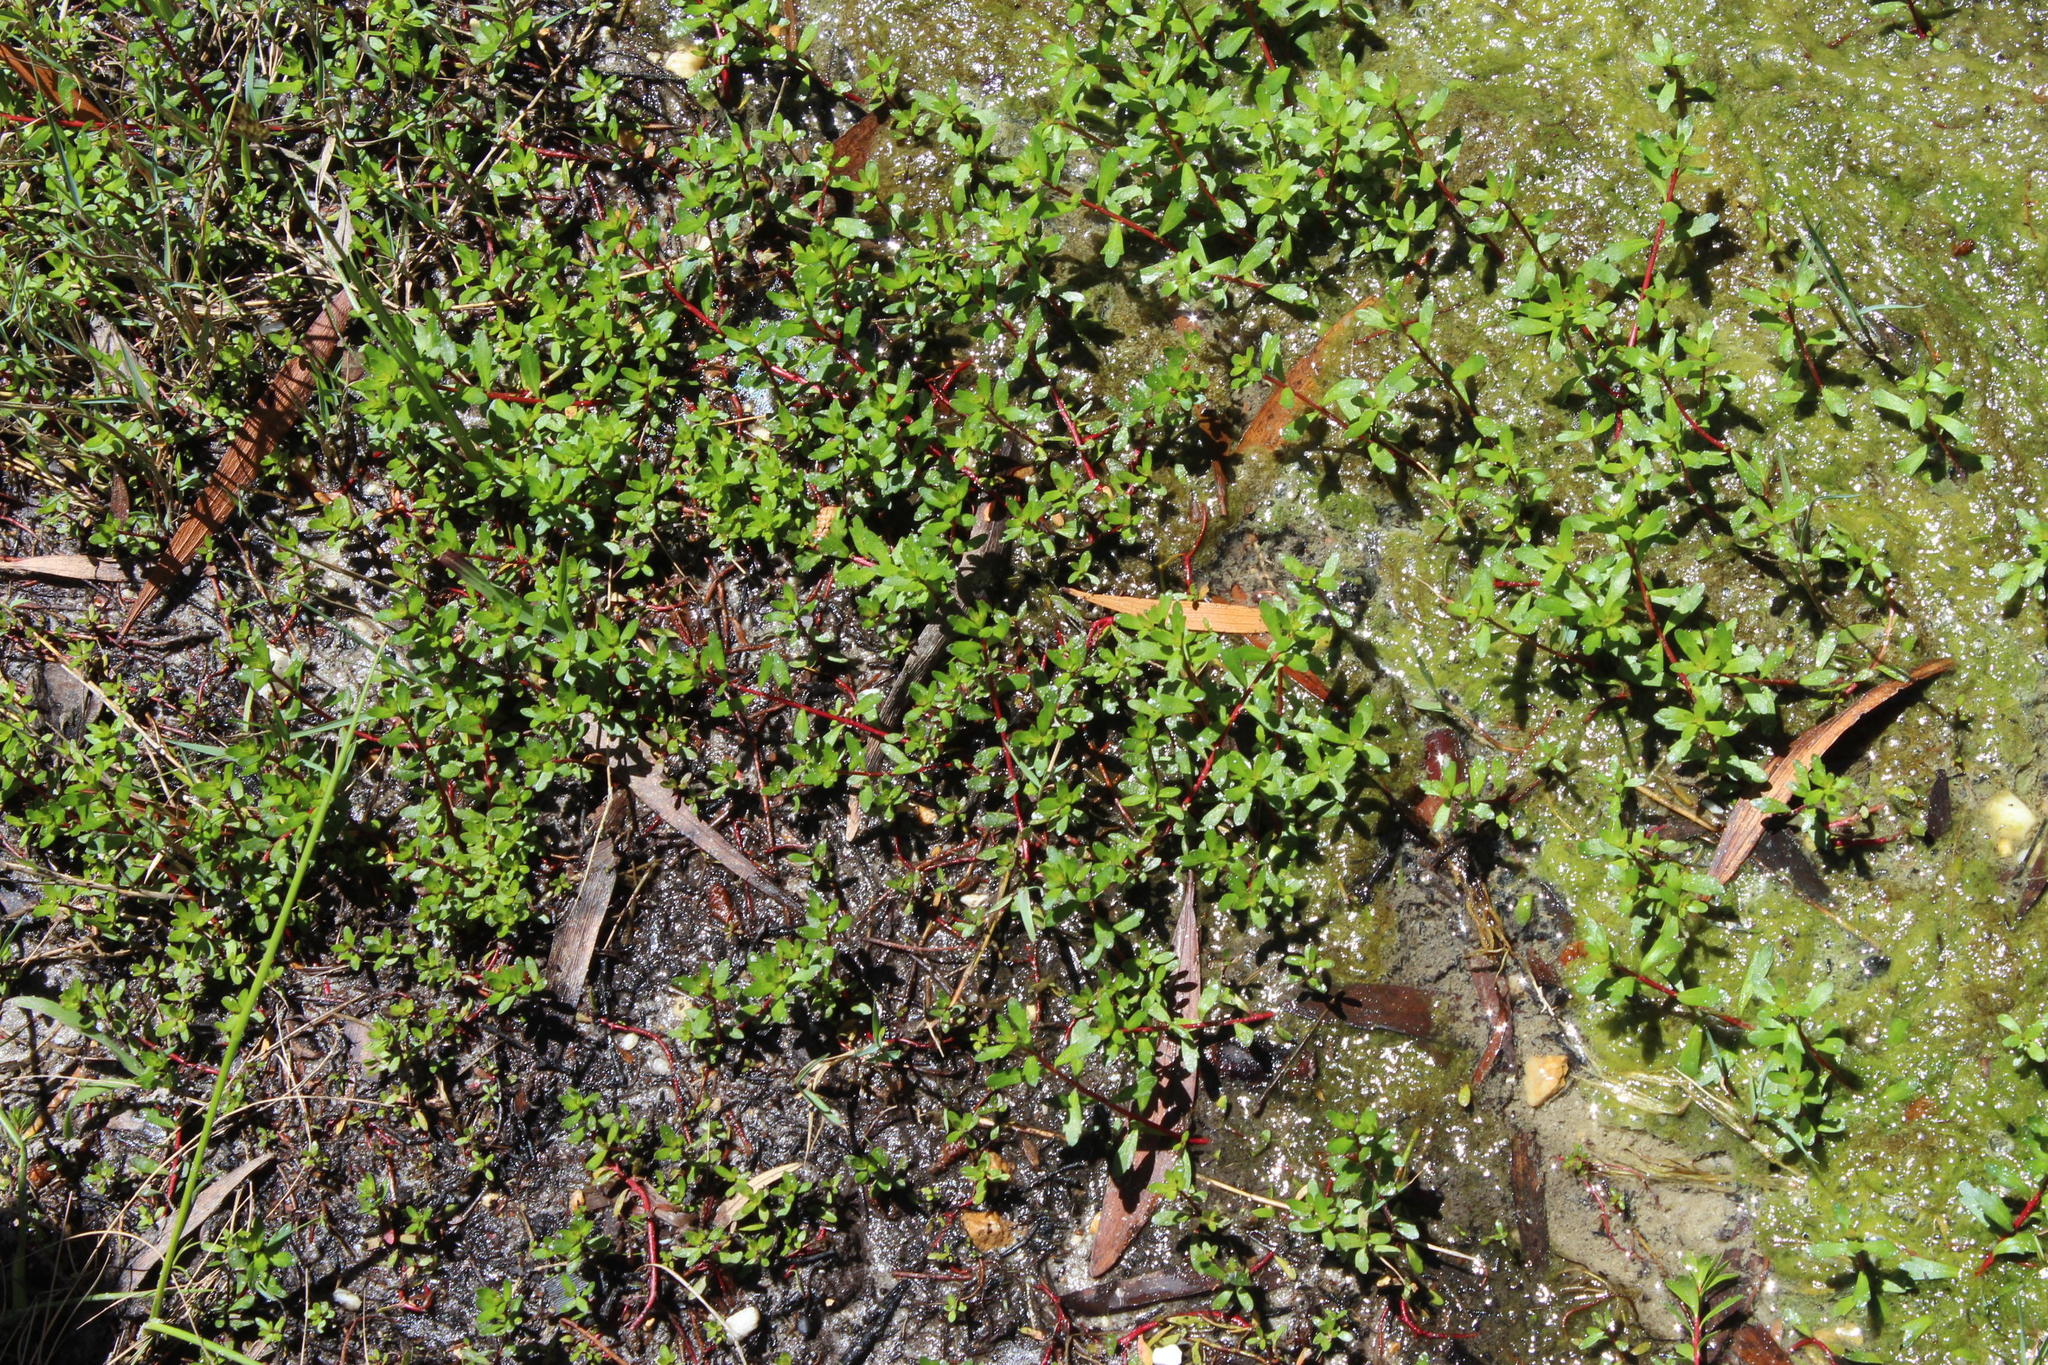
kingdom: Plantae
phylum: Tracheophyta
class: Magnoliopsida
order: Saxifragales
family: Haloragaceae
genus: Laurembergia
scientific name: Laurembergia repens
